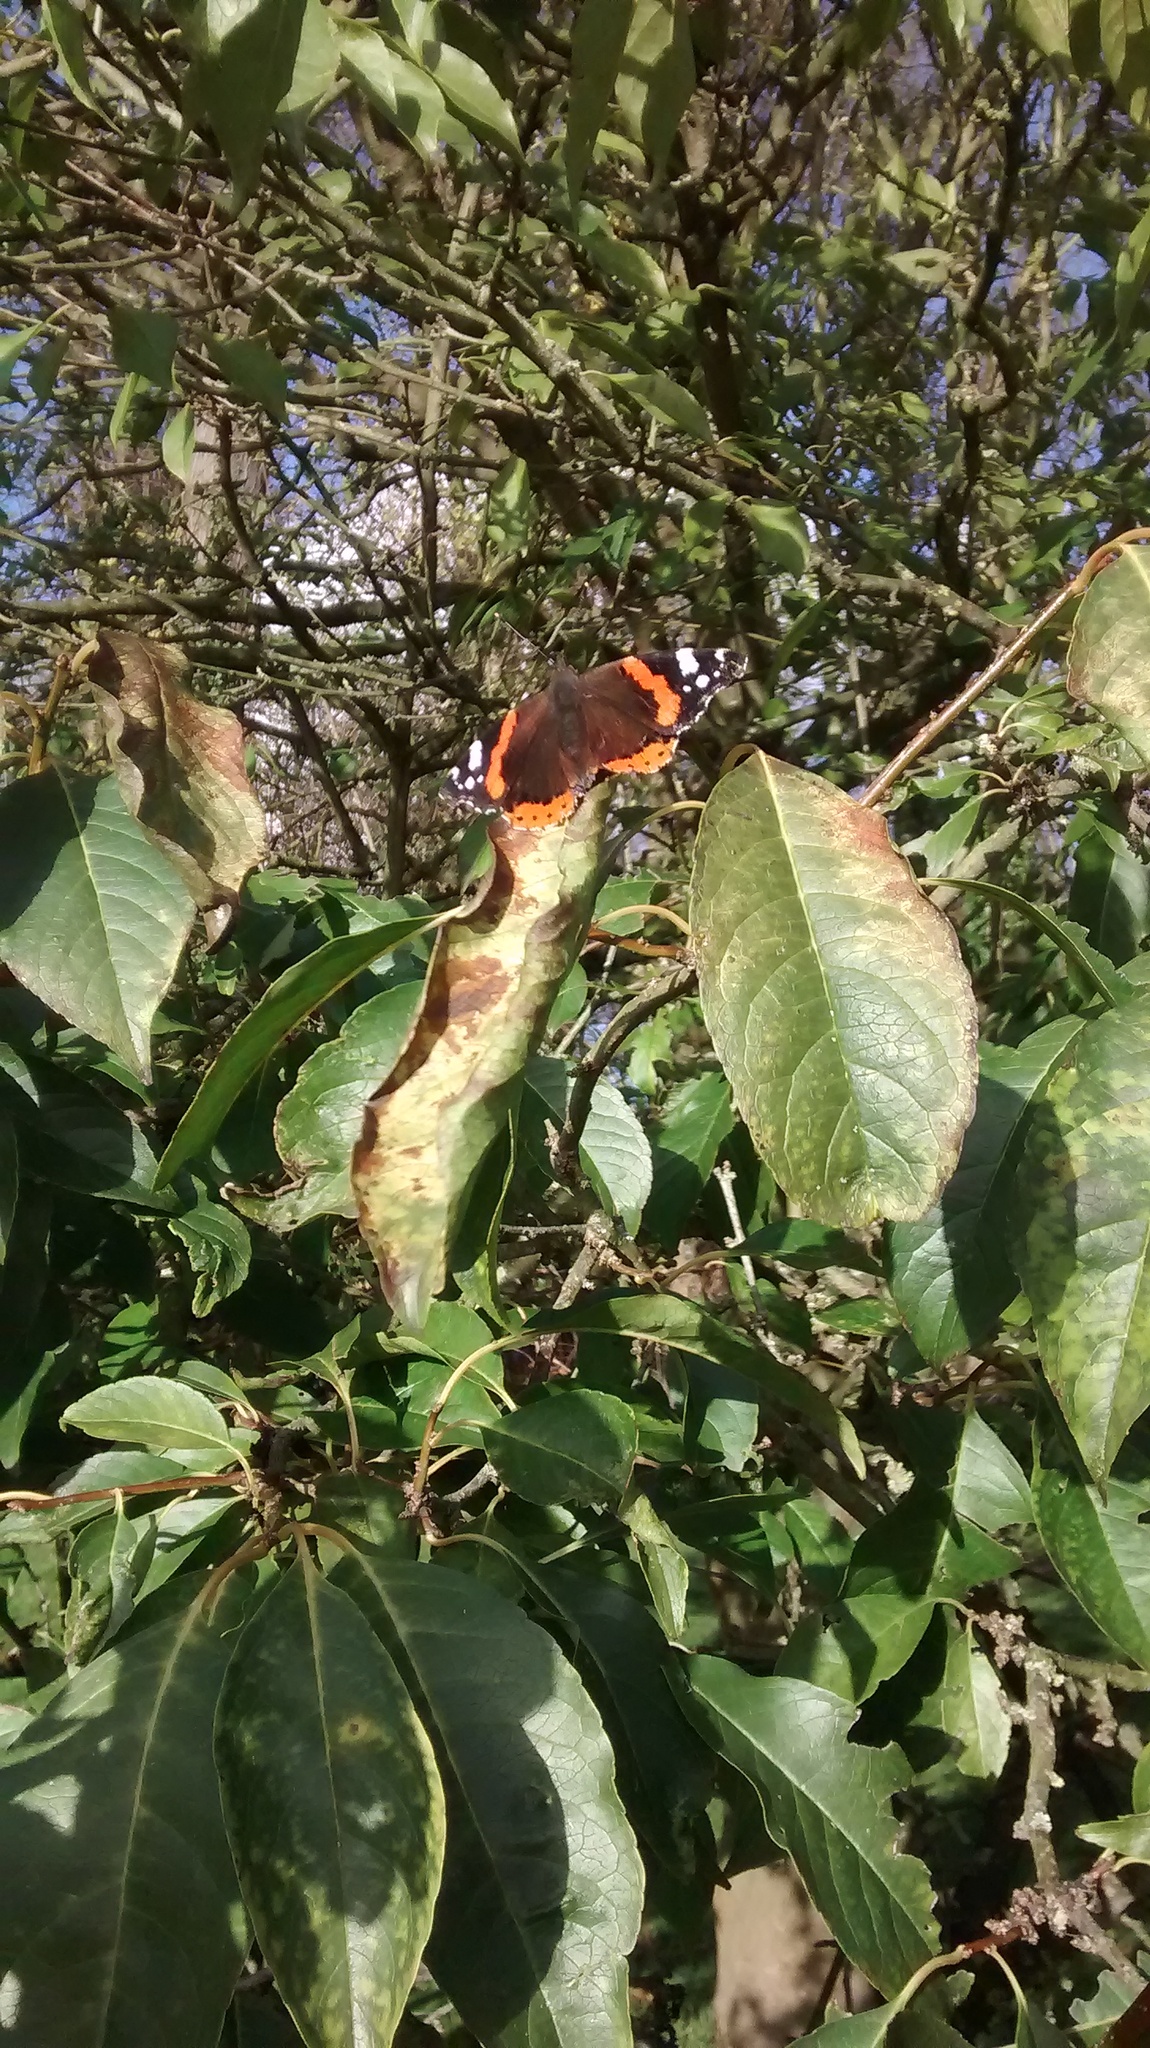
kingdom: Animalia
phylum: Arthropoda
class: Insecta
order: Lepidoptera
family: Nymphalidae
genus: Vanessa
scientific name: Vanessa atalanta
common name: Red admiral
